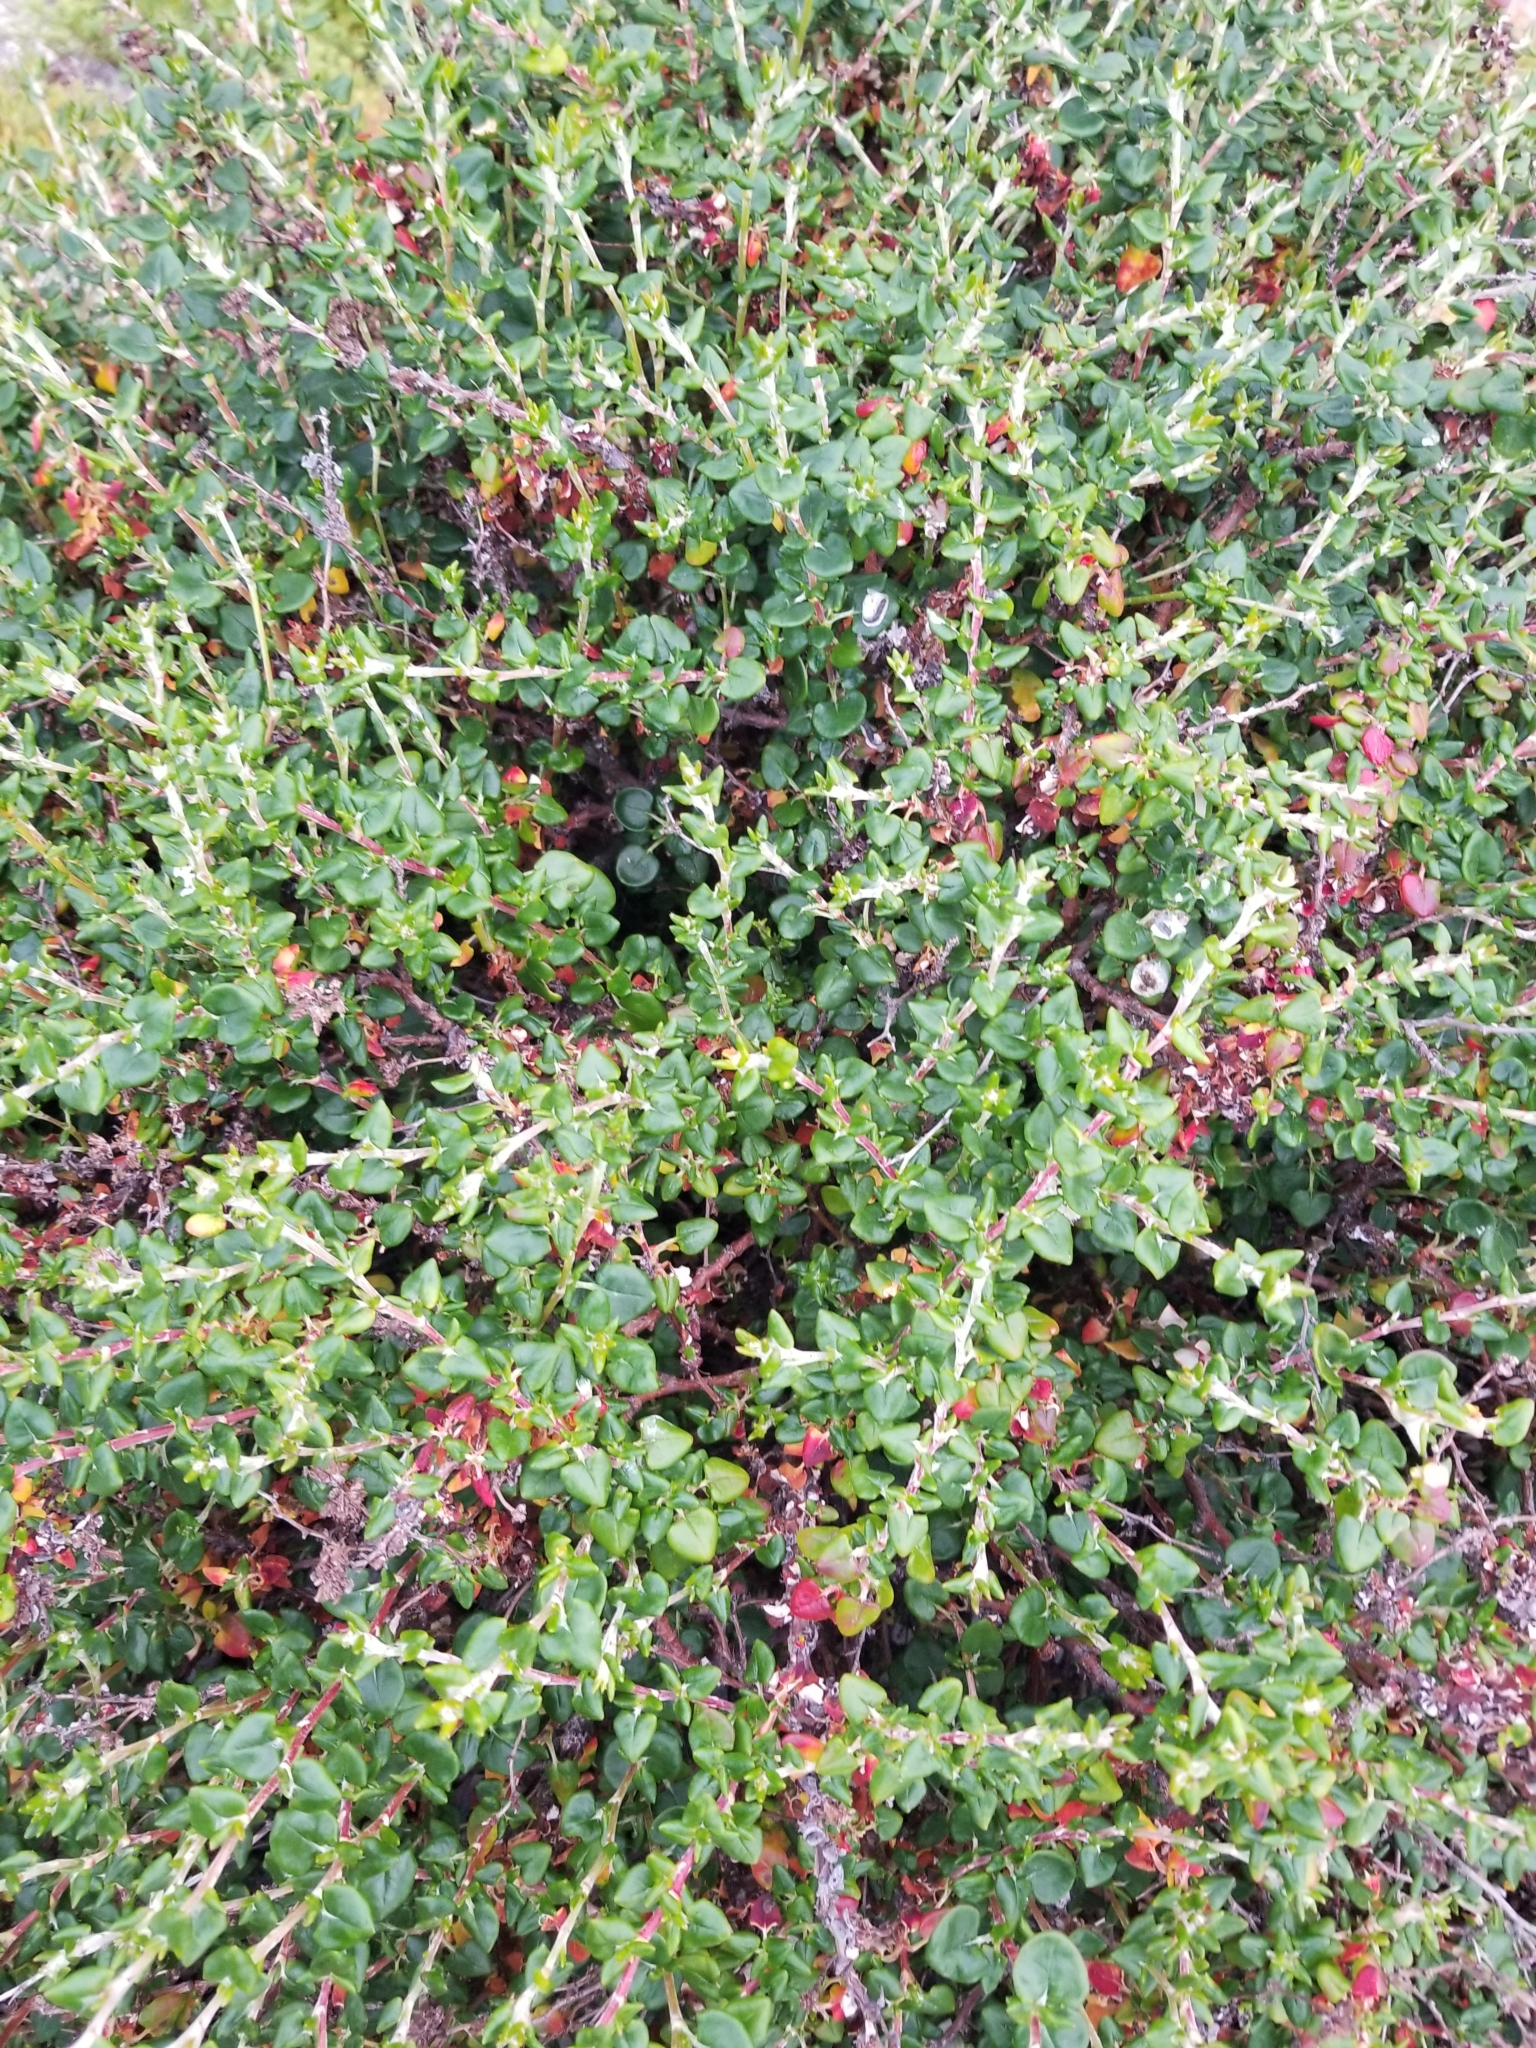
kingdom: Plantae
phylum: Tracheophyta
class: Magnoliopsida
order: Caryophyllales
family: Polygonaceae
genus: Eriogonum
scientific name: Eriogonum parvifolium
